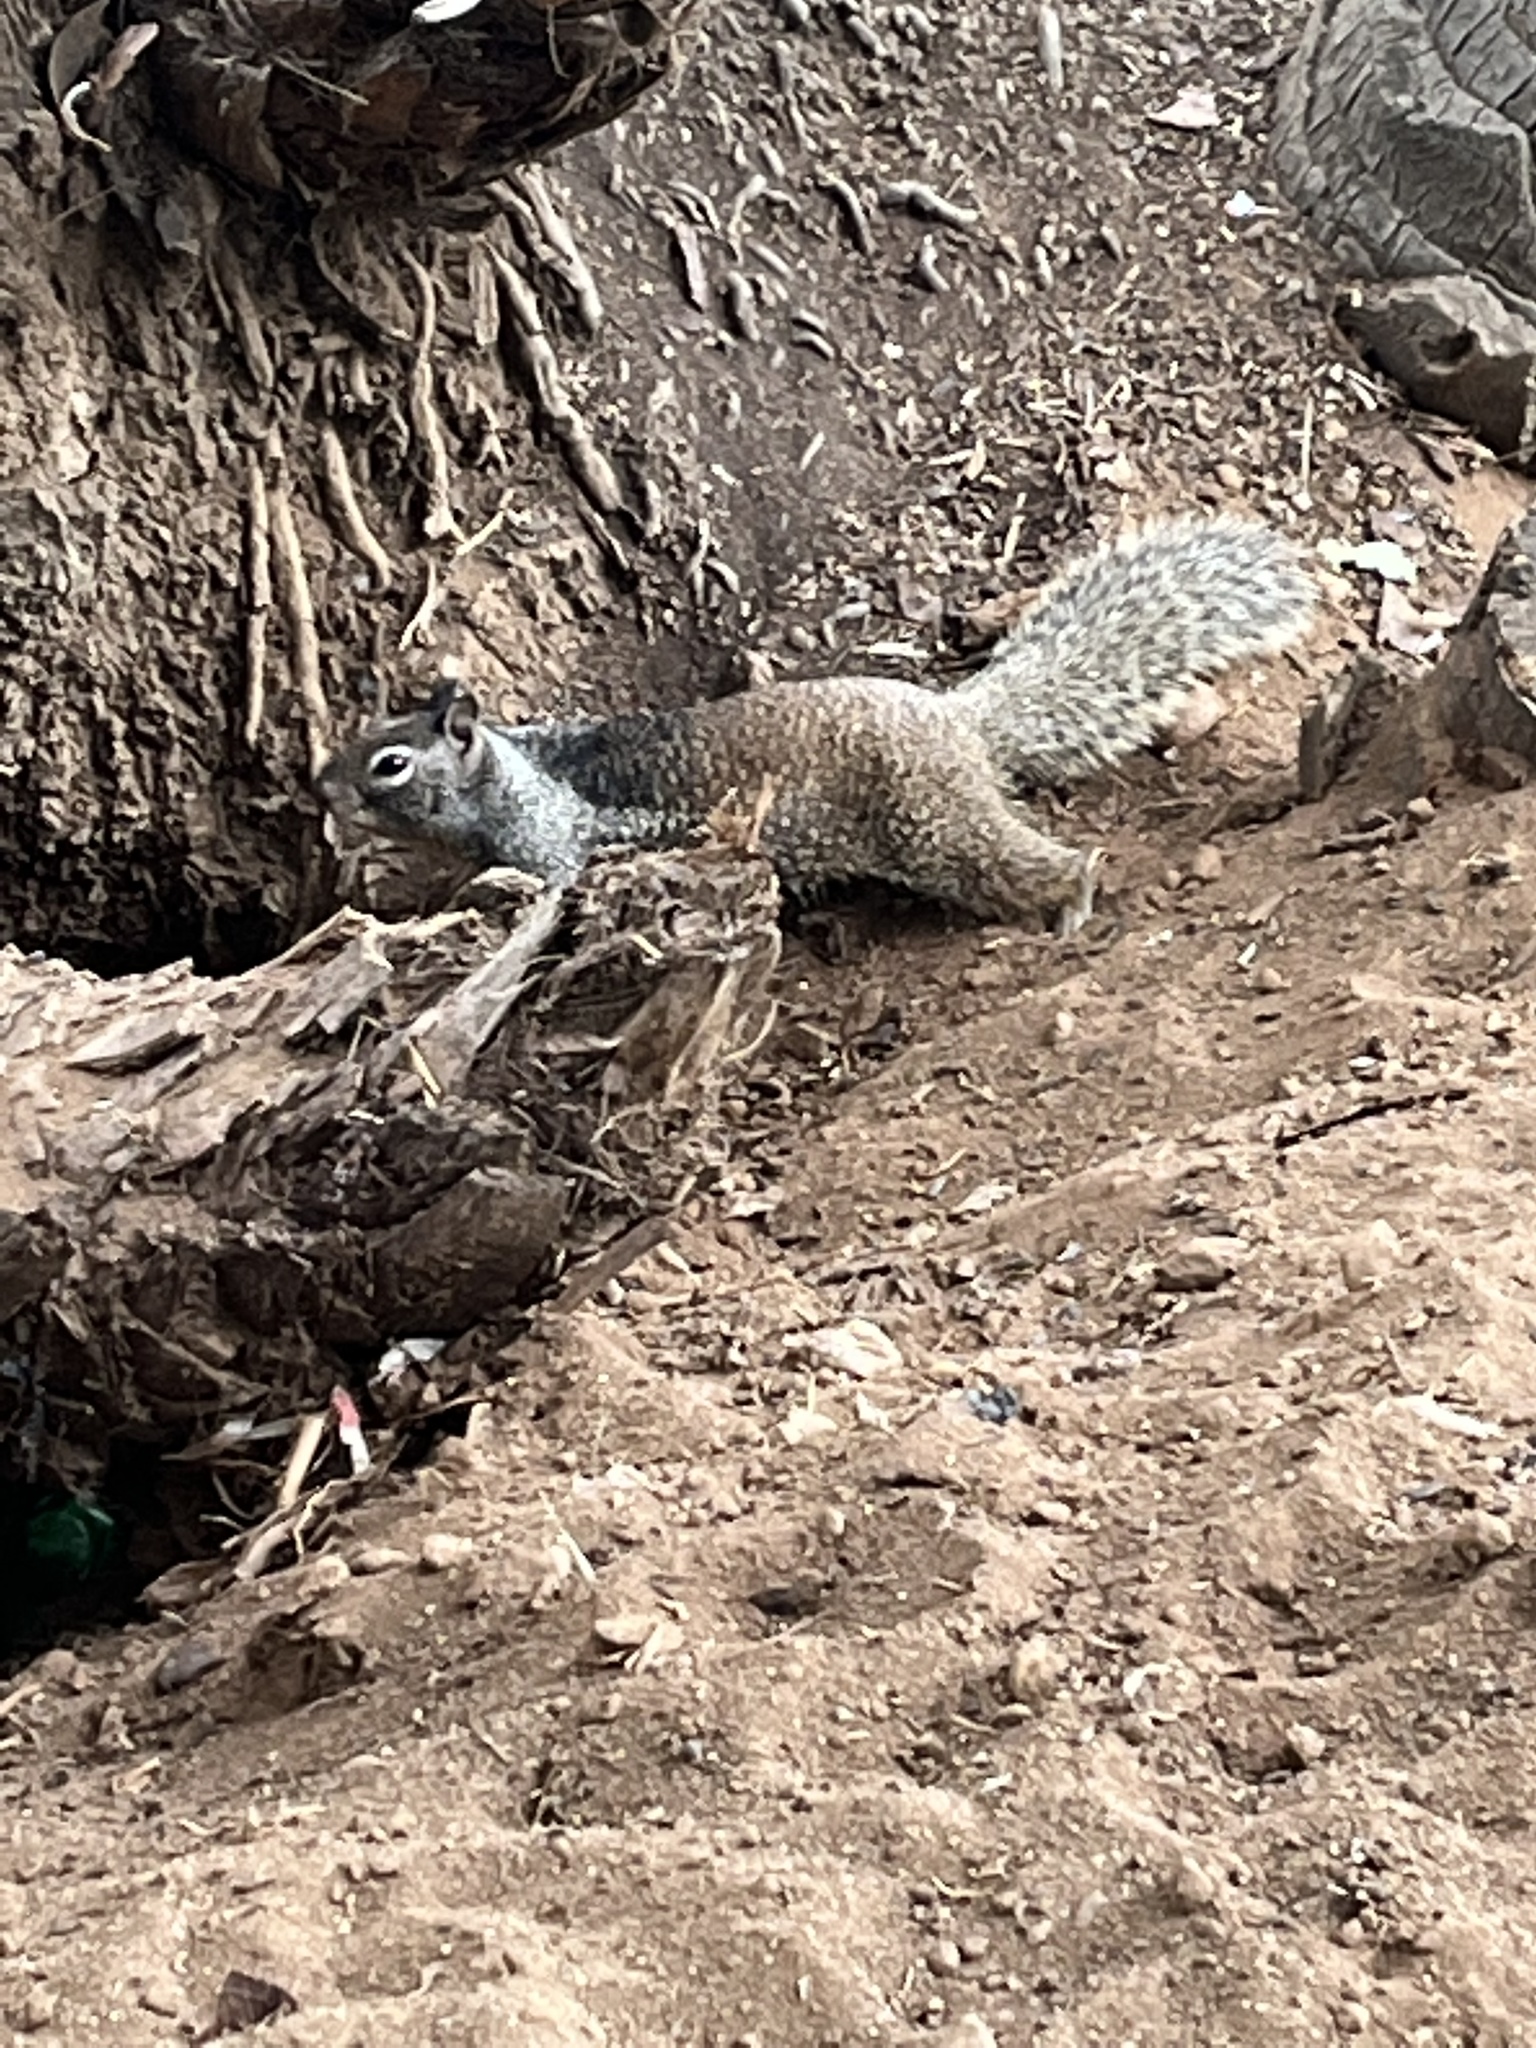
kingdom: Animalia
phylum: Chordata
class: Mammalia
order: Rodentia
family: Sciuridae
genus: Otospermophilus
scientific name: Otospermophilus beecheyi
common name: California ground squirrel
